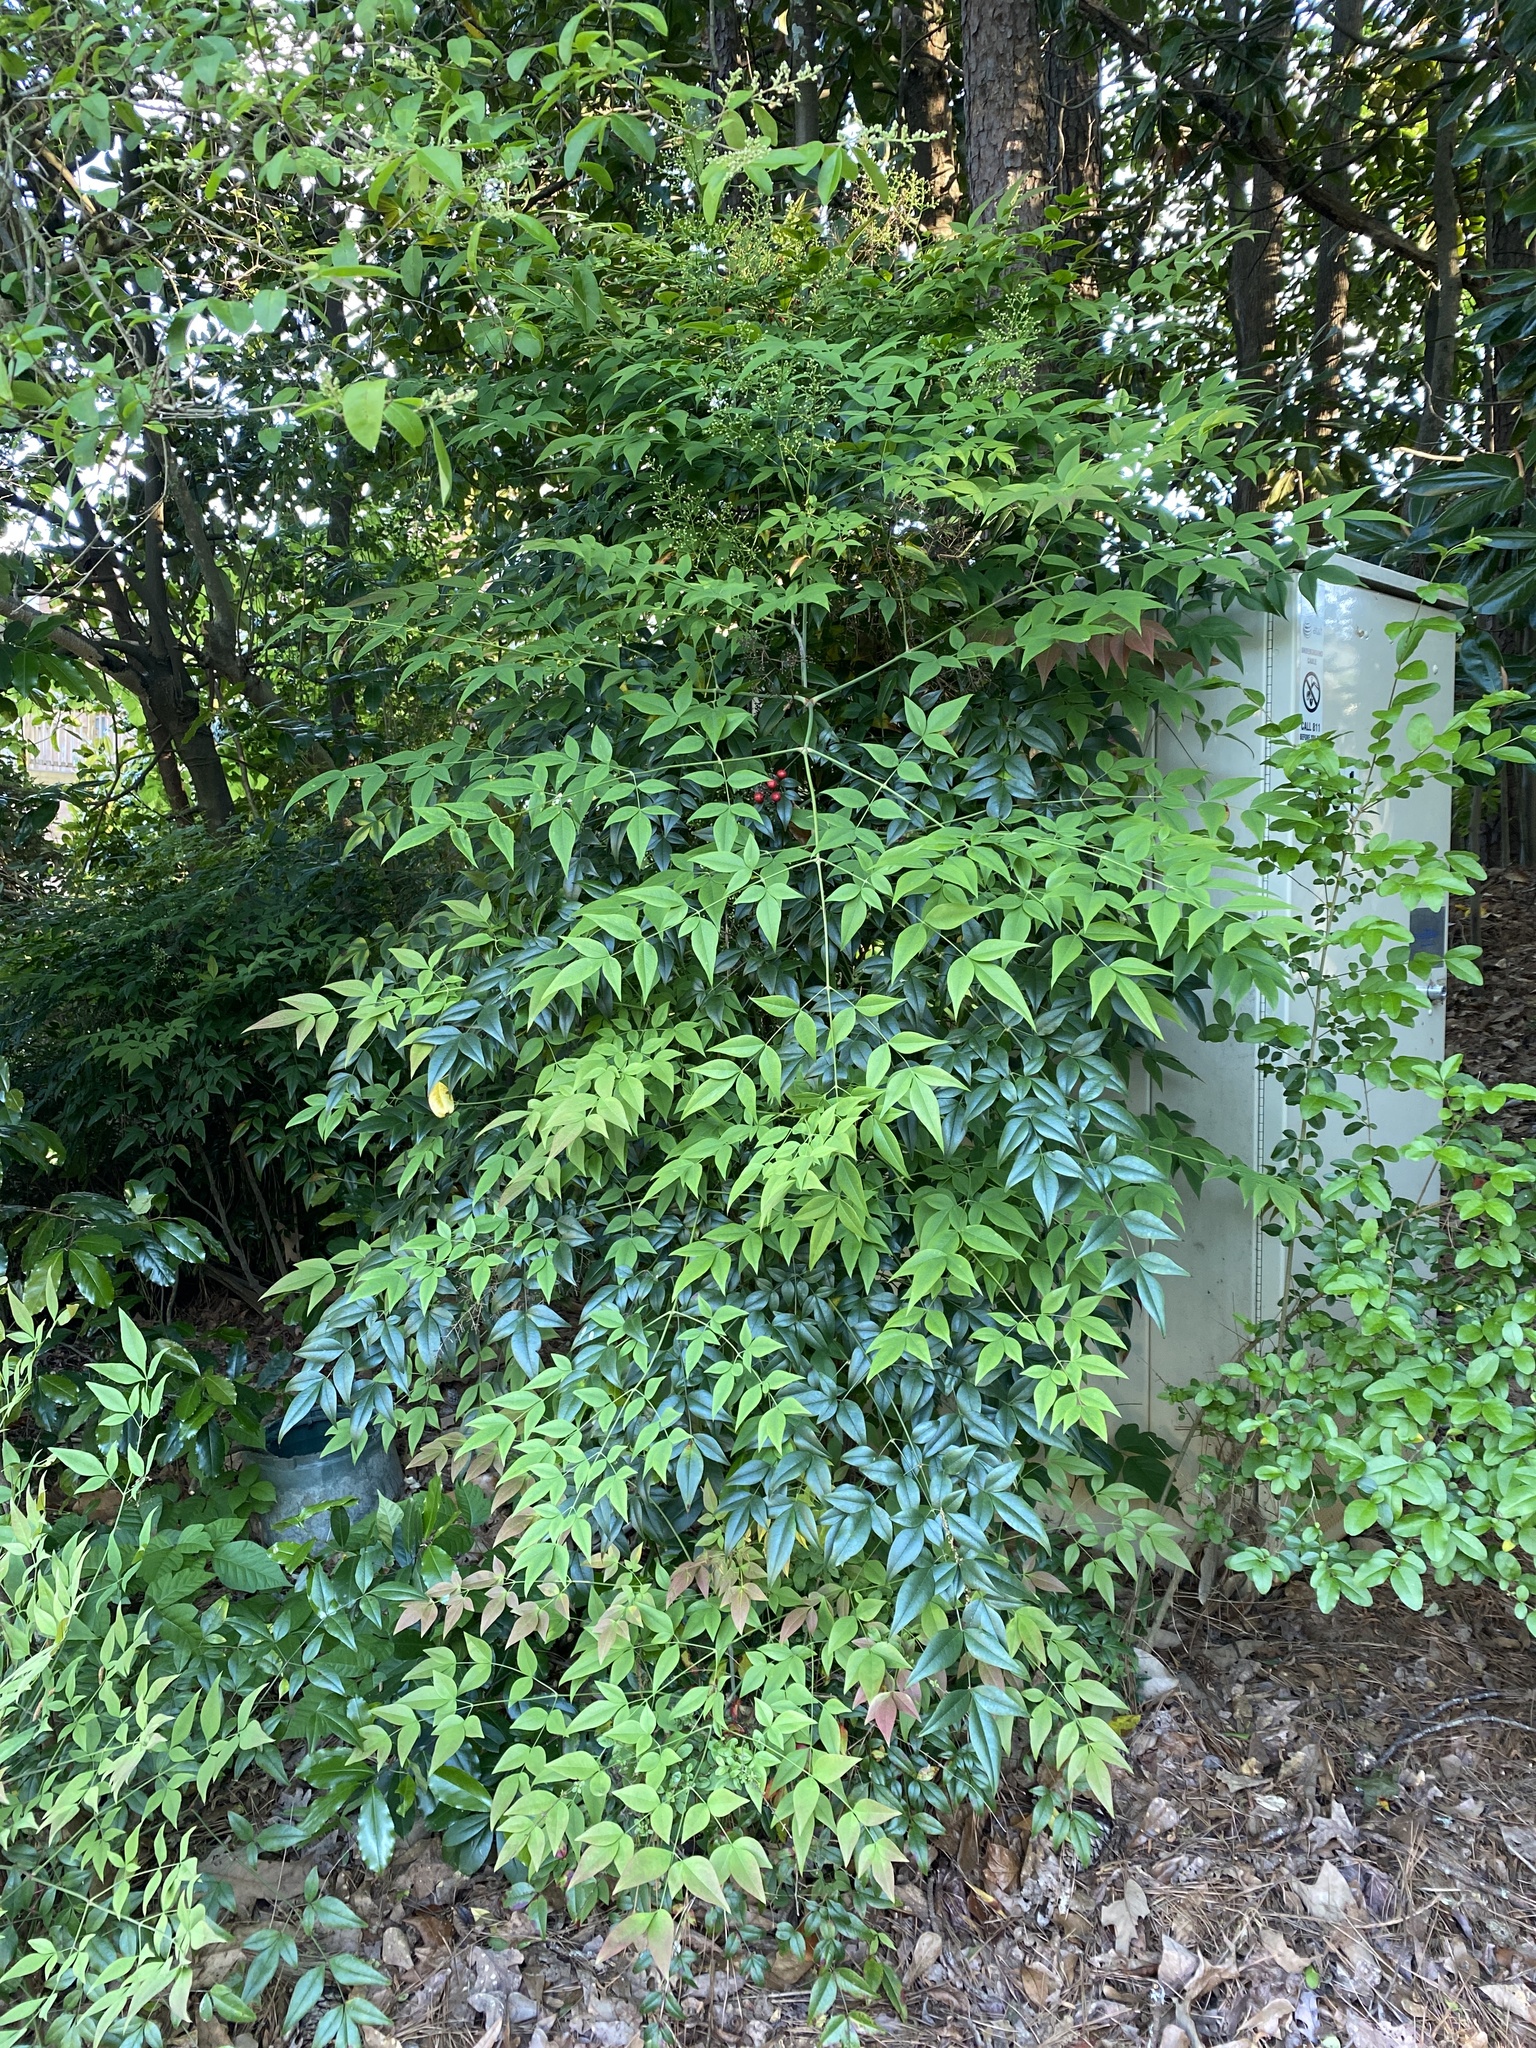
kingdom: Plantae
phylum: Tracheophyta
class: Magnoliopsida
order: Ranunculales
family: Berberidaceae
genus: Nandina
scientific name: Nandina domestica
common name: Sacred bamboo
